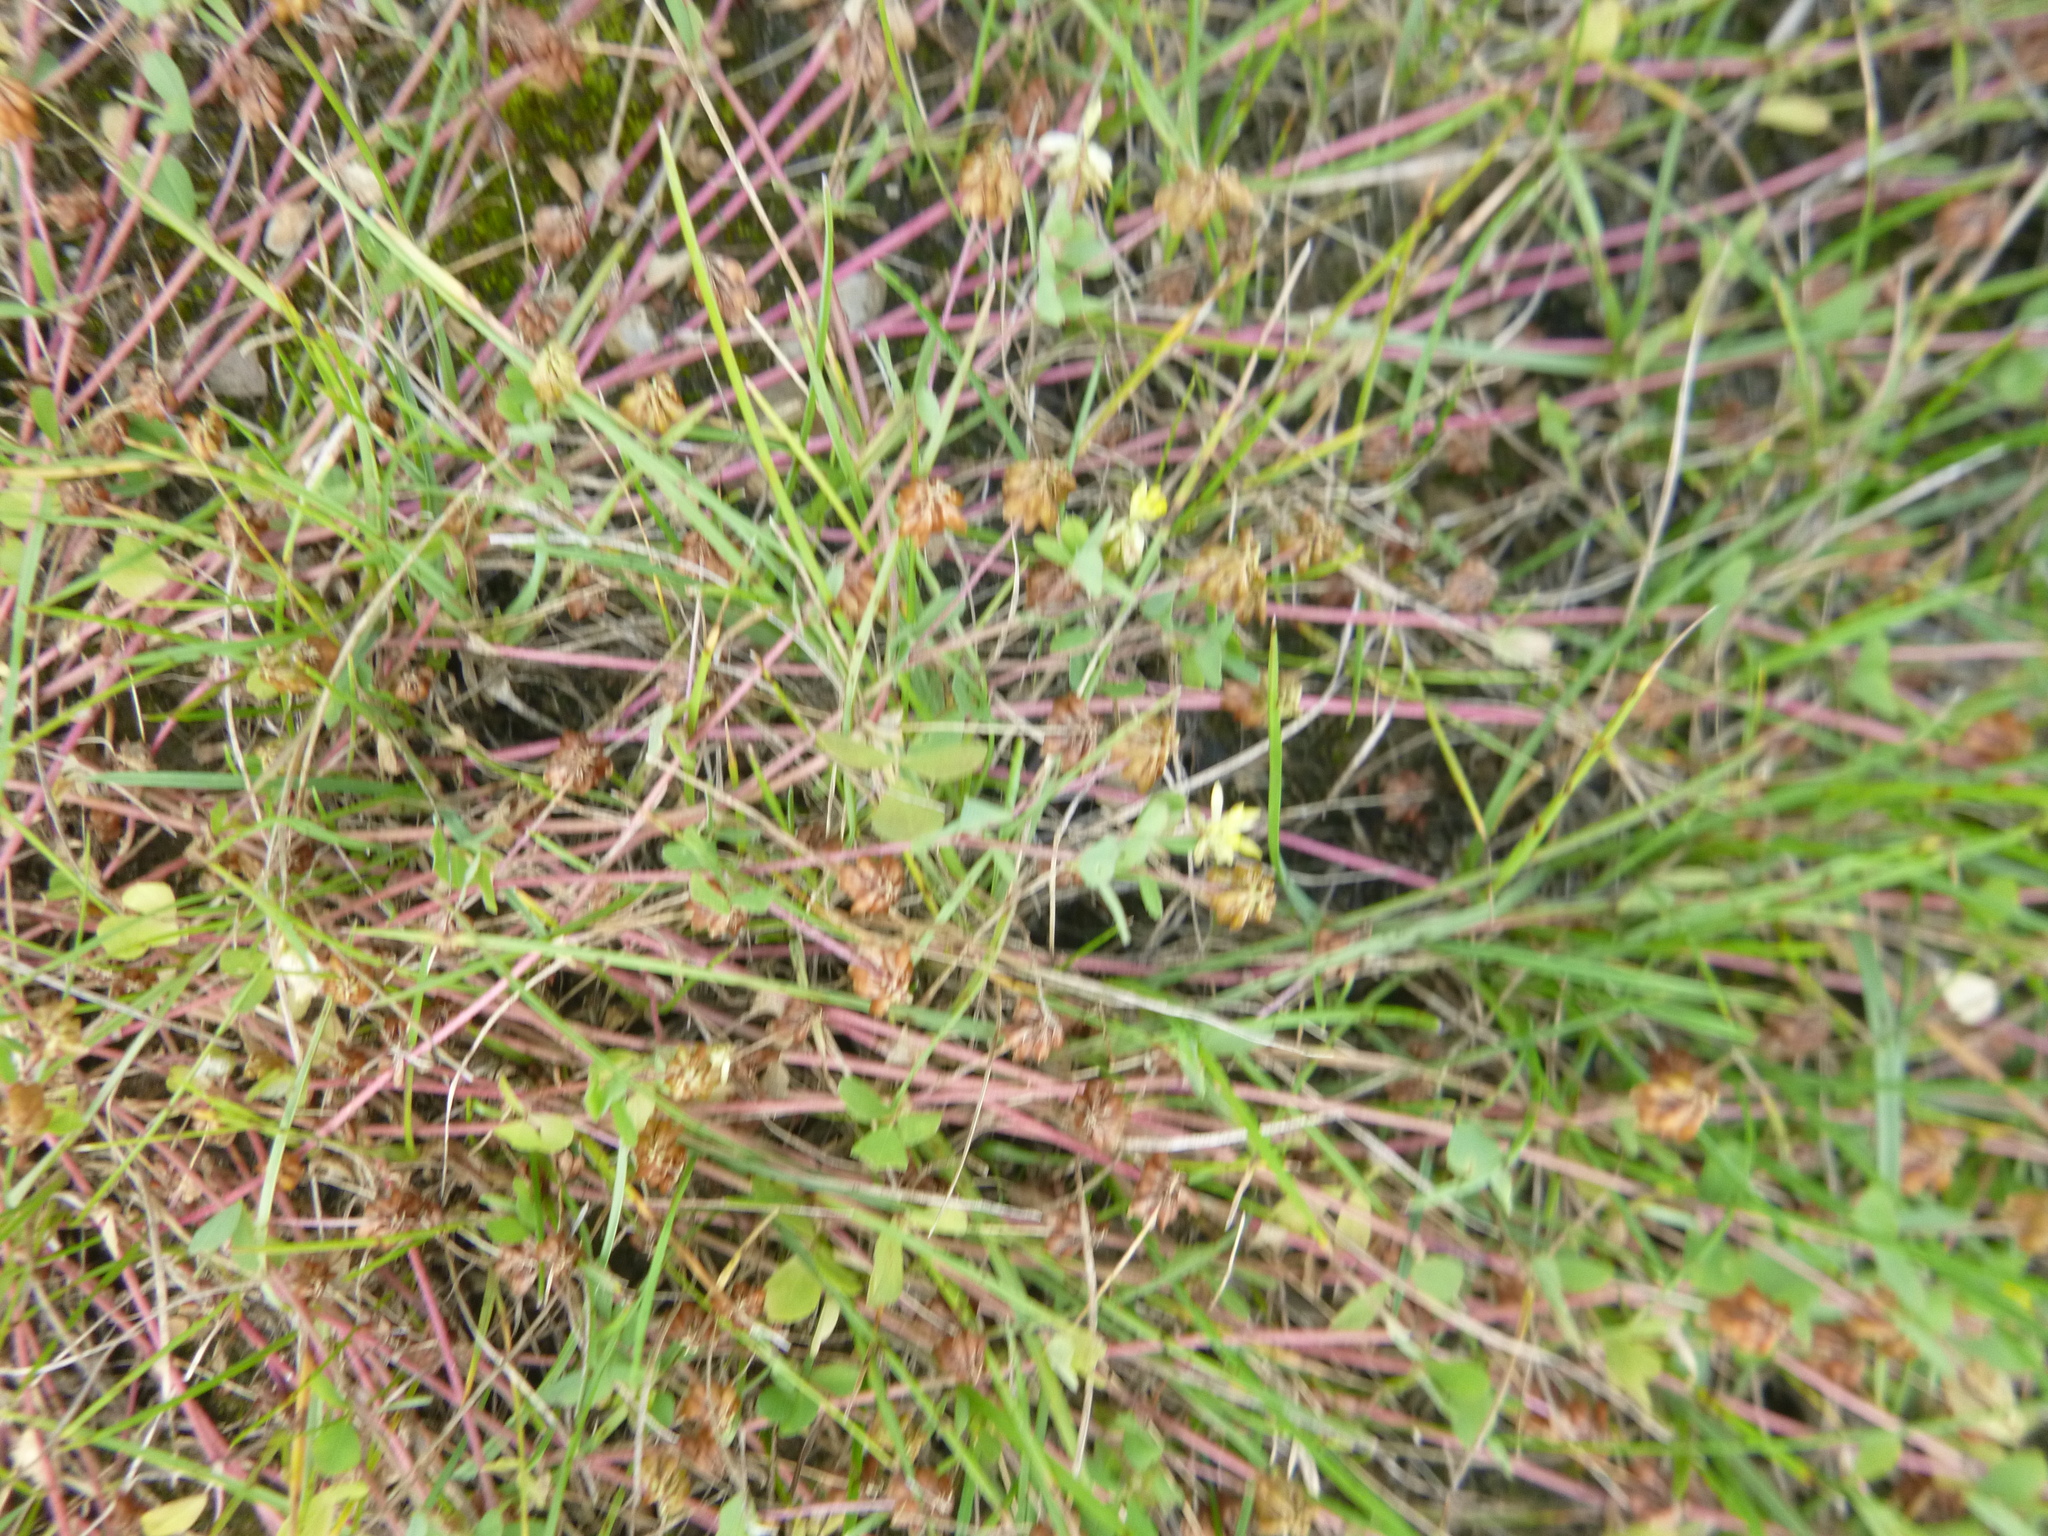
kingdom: Plantae
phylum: Tracheophyta
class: Magnoliopsida
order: Fabales
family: Fabaceae
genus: Trifolium
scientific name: Trifolium dubium
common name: Suckling clover
